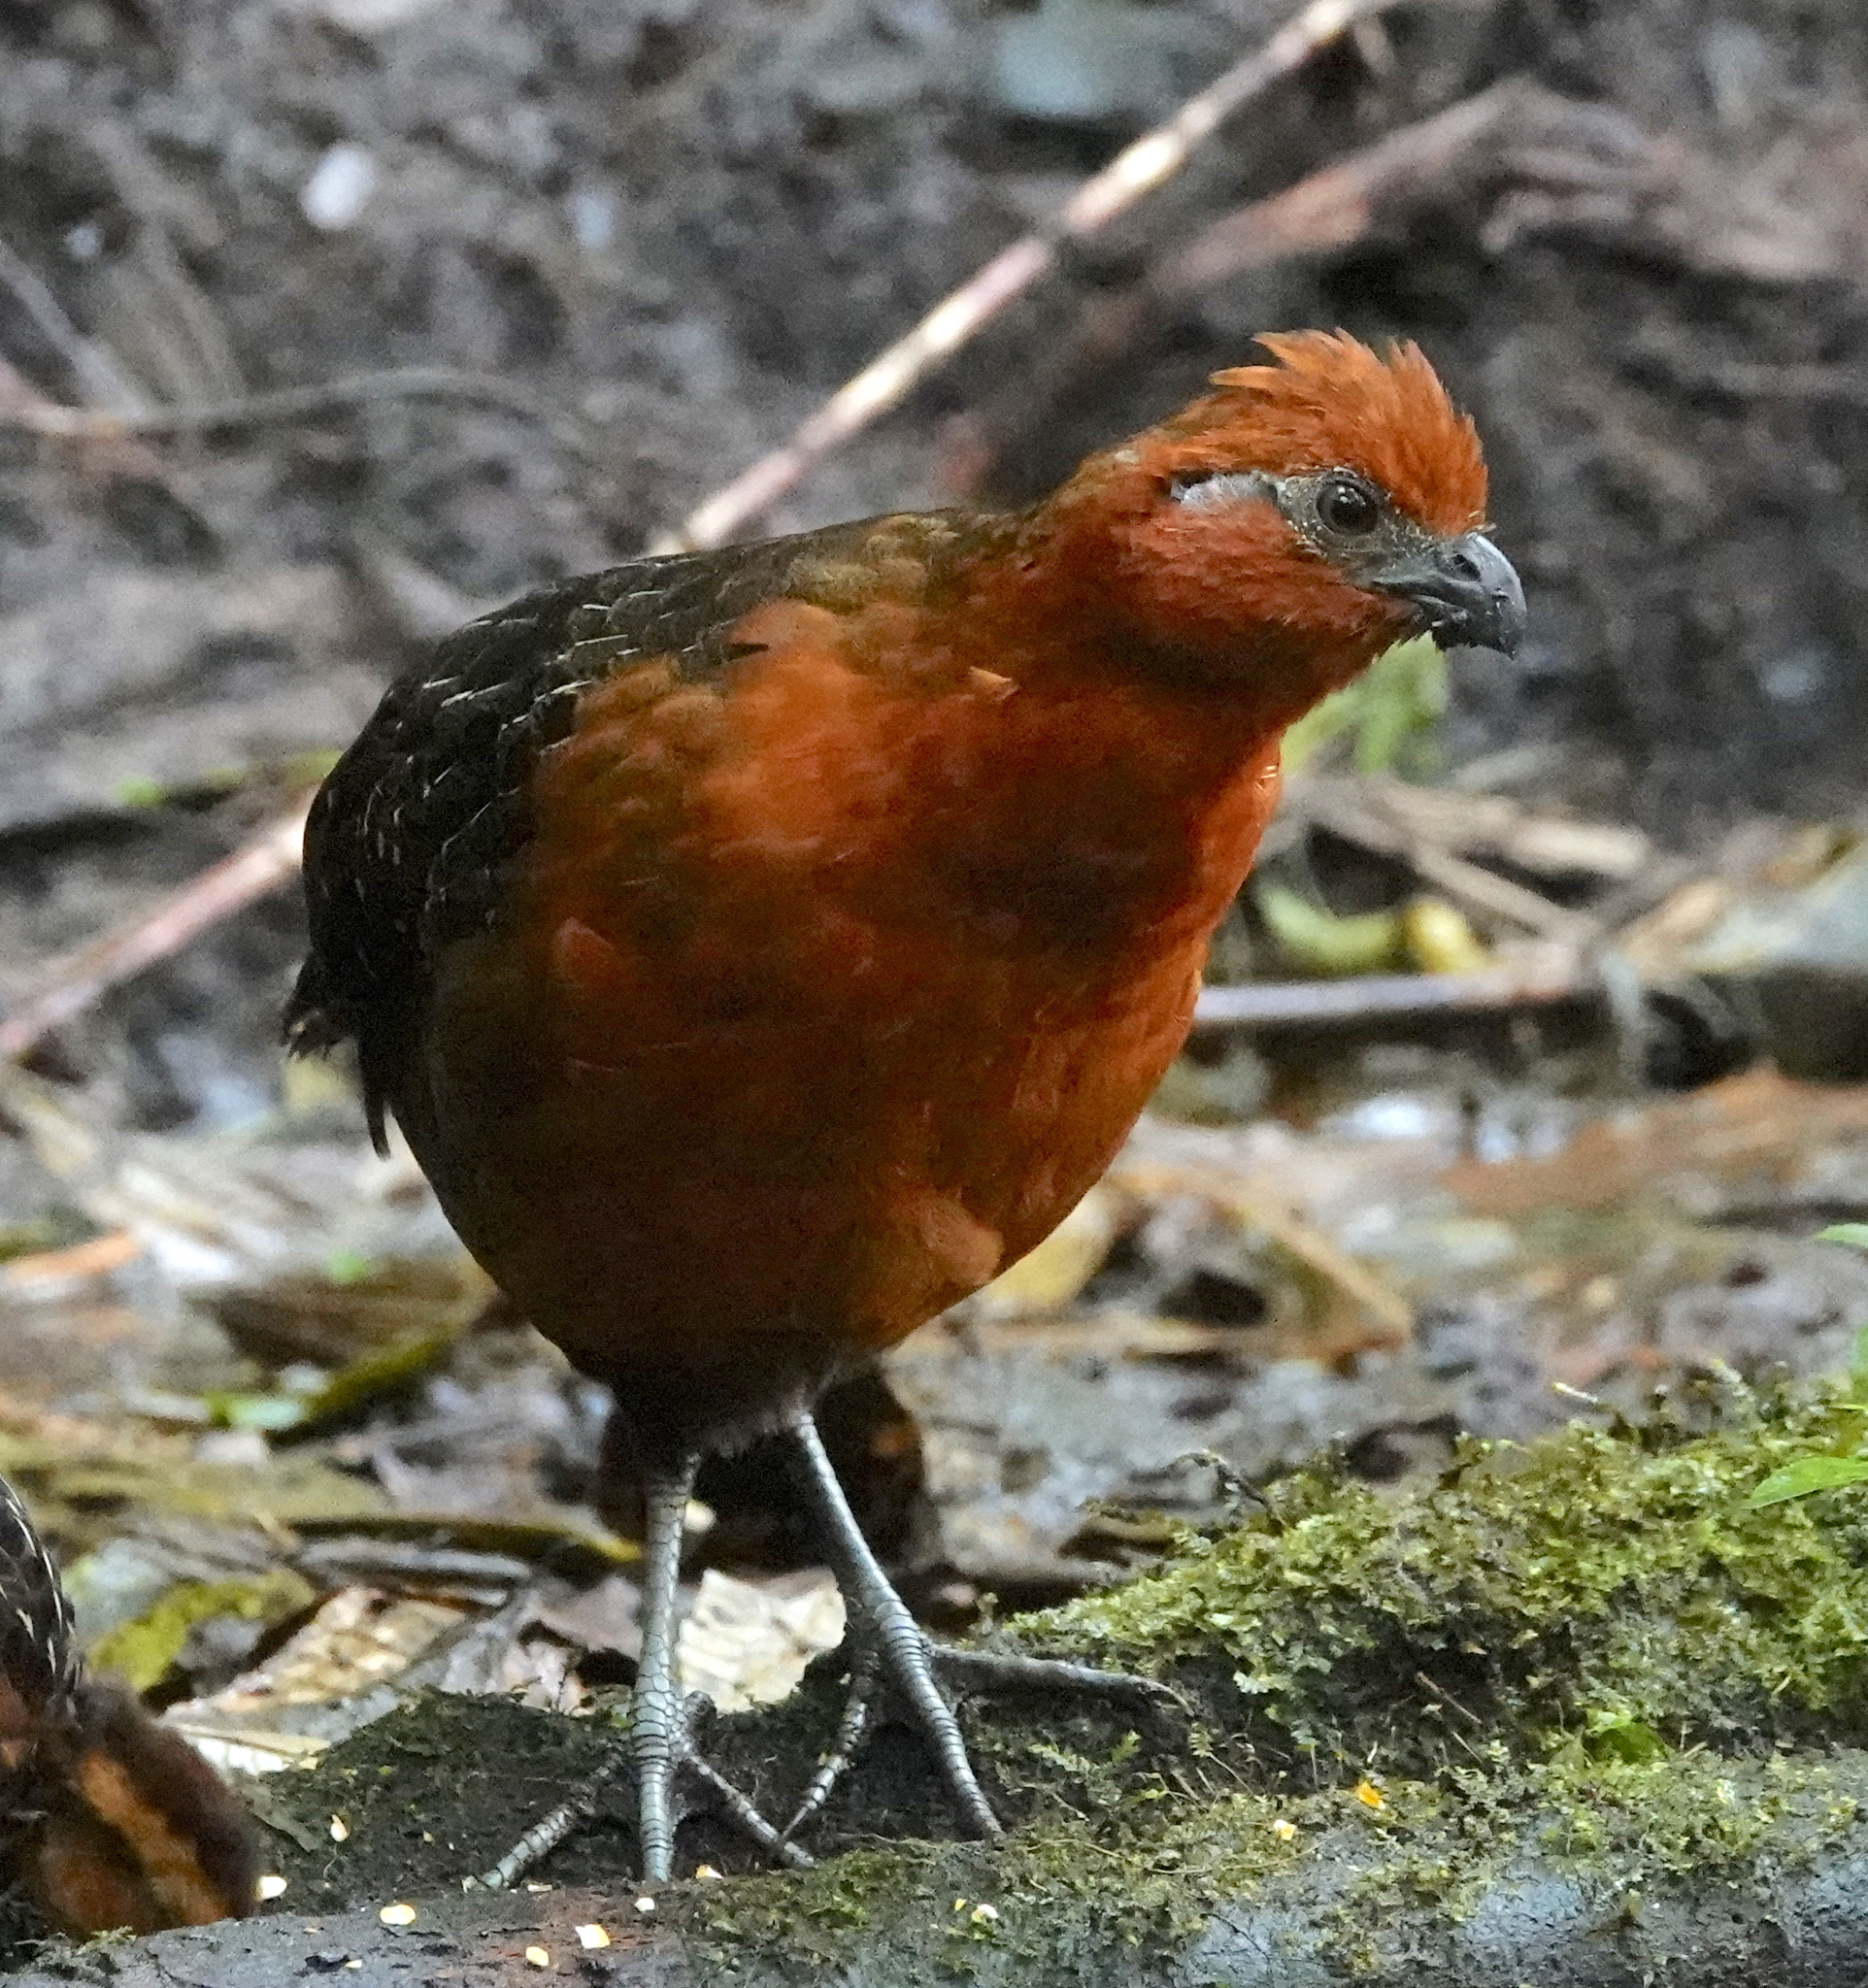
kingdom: Animalia
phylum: Chordata
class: Aves
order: Galliformes
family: Odontophoridae
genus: Odontophorus
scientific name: Odontophorus hyperythrus
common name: Chestnut wood-quail
